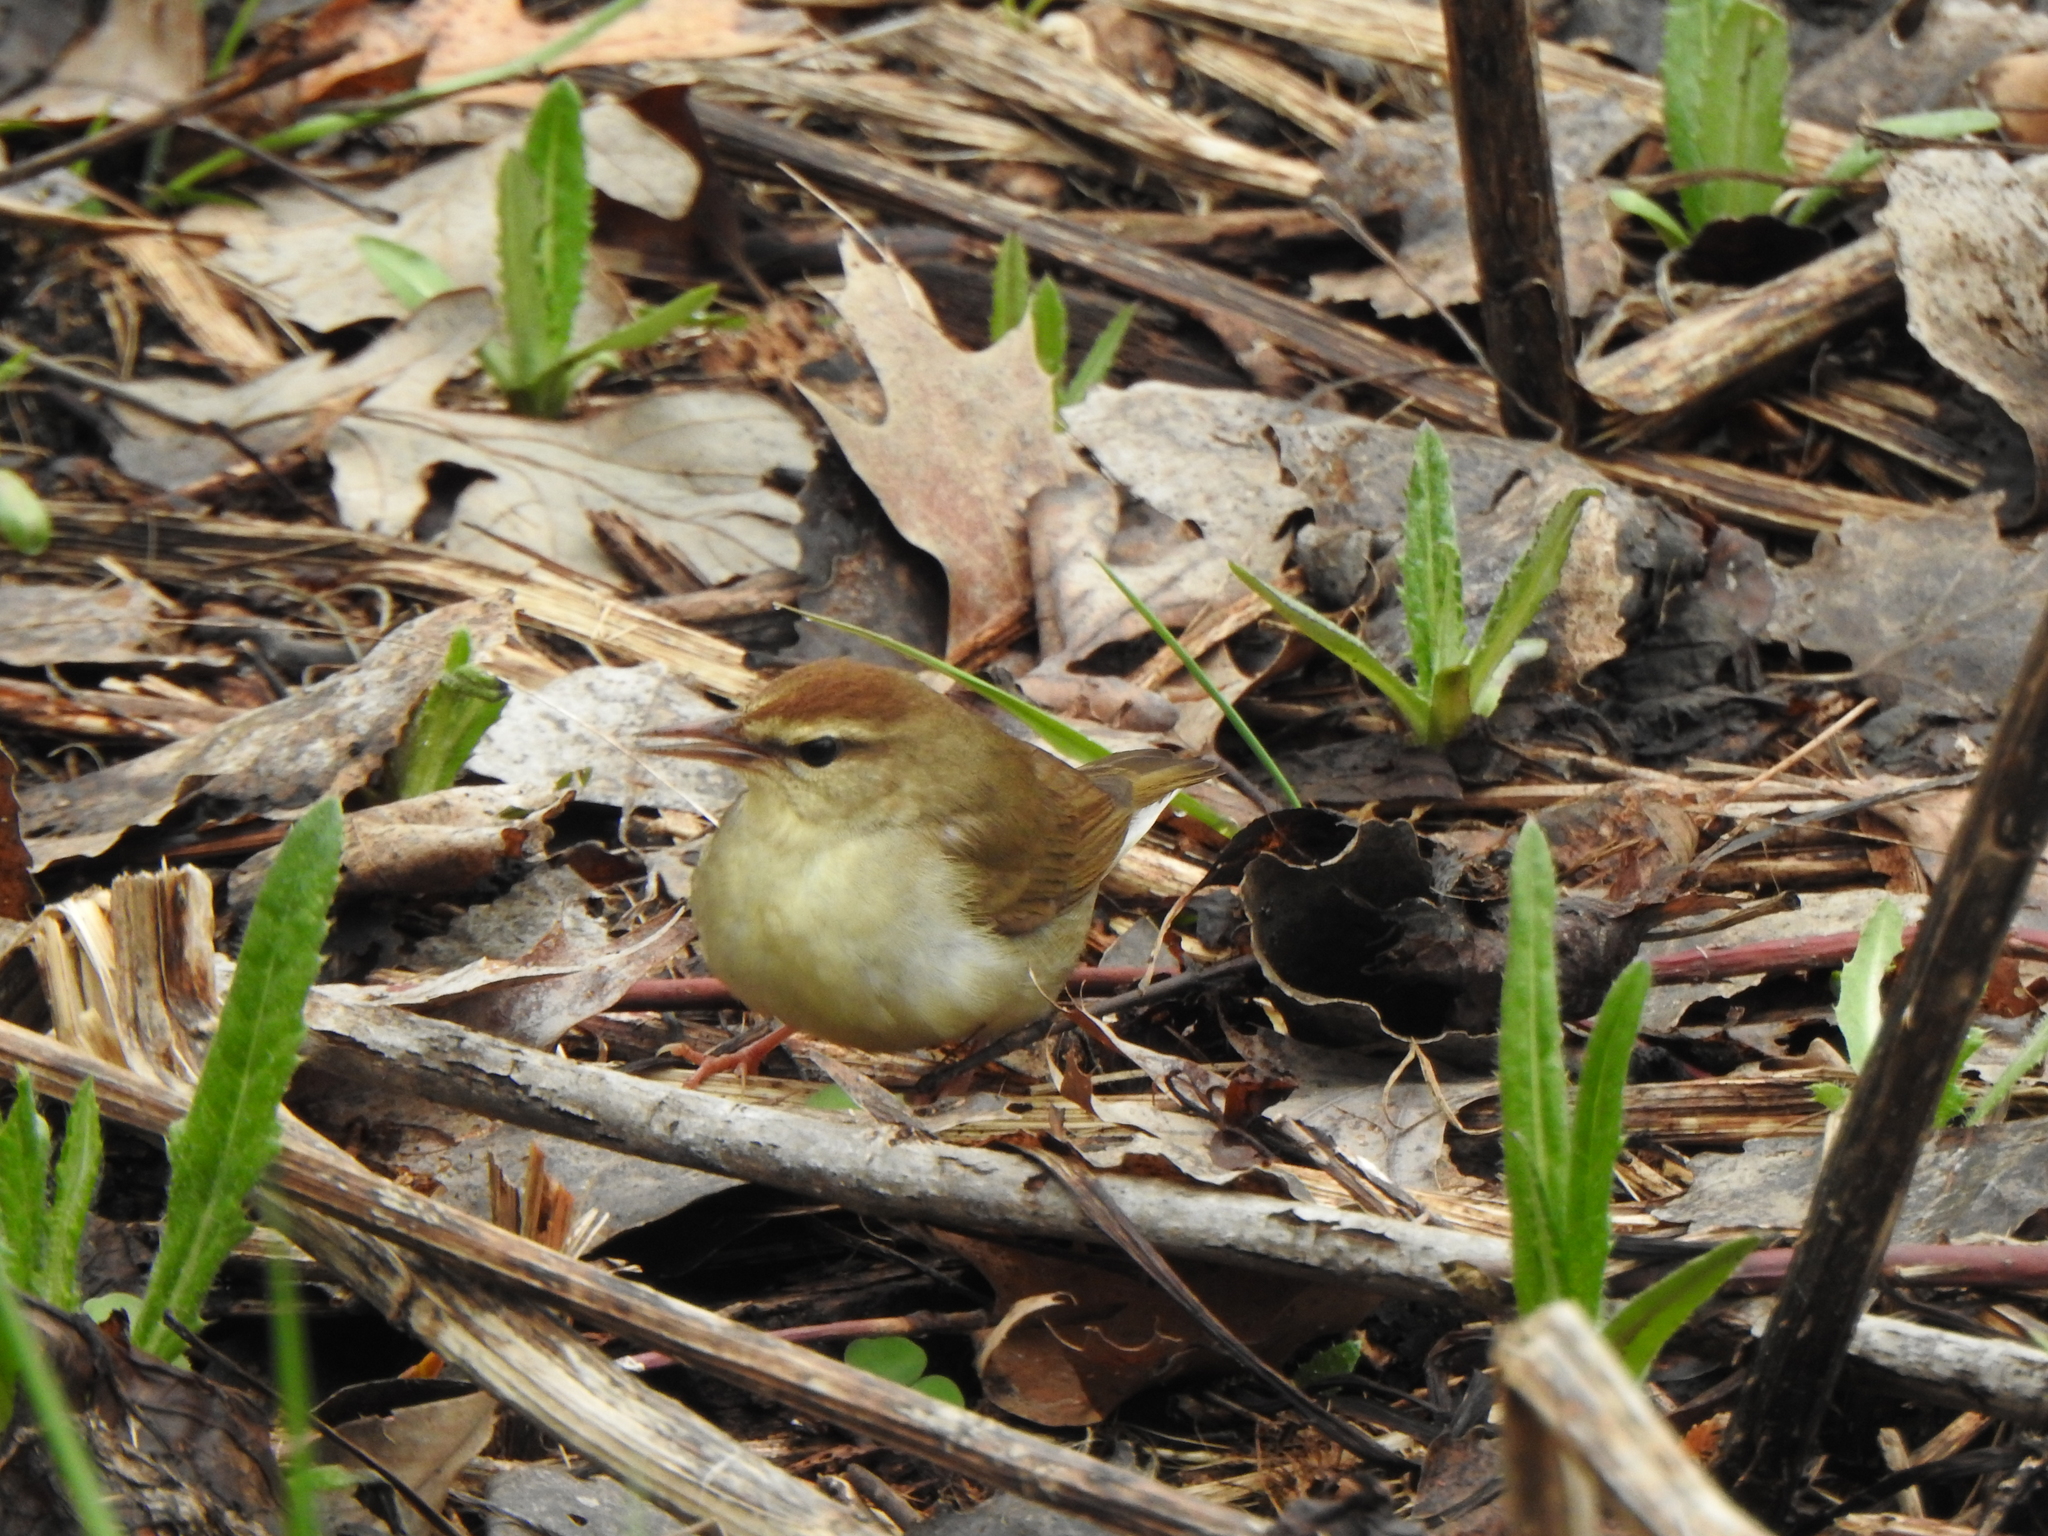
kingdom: Animalia
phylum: Chordata
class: Aves
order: Passeriformes
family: Parulidae
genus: Limnothlypis
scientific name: Limnothlypis swainsonii
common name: Swainson's warbler
